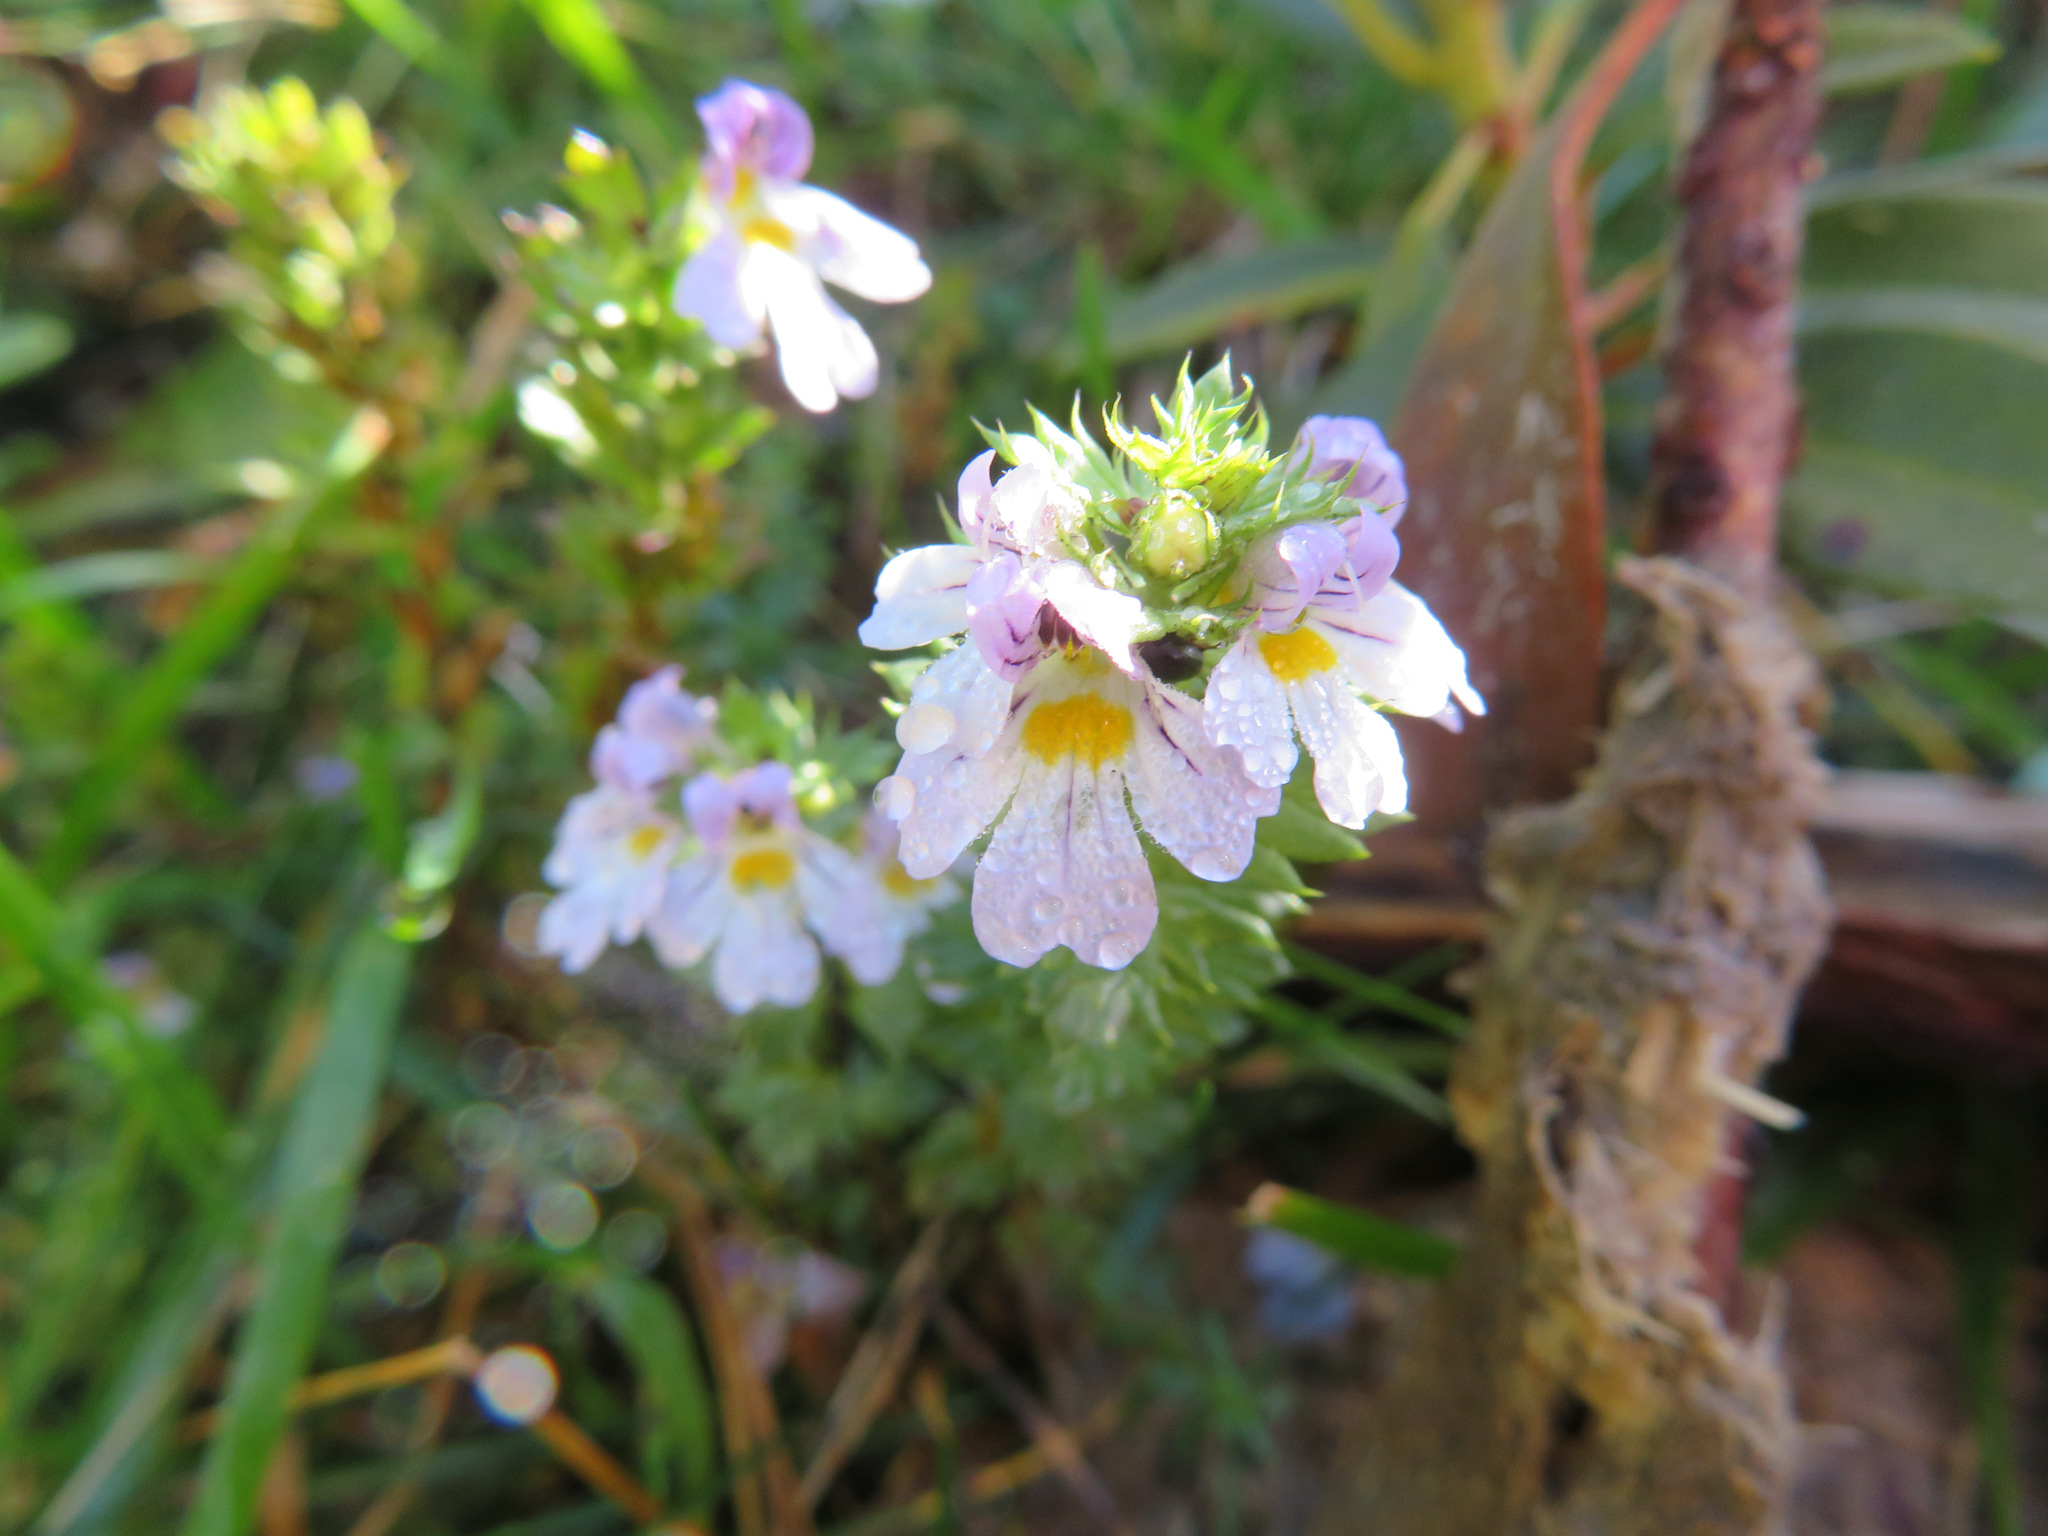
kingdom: Plantae
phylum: Tracheophyta
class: Magnoliopsida
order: Lamiales
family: Orobanchaceae
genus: Euphrasia
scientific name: Euphrasia alpina
